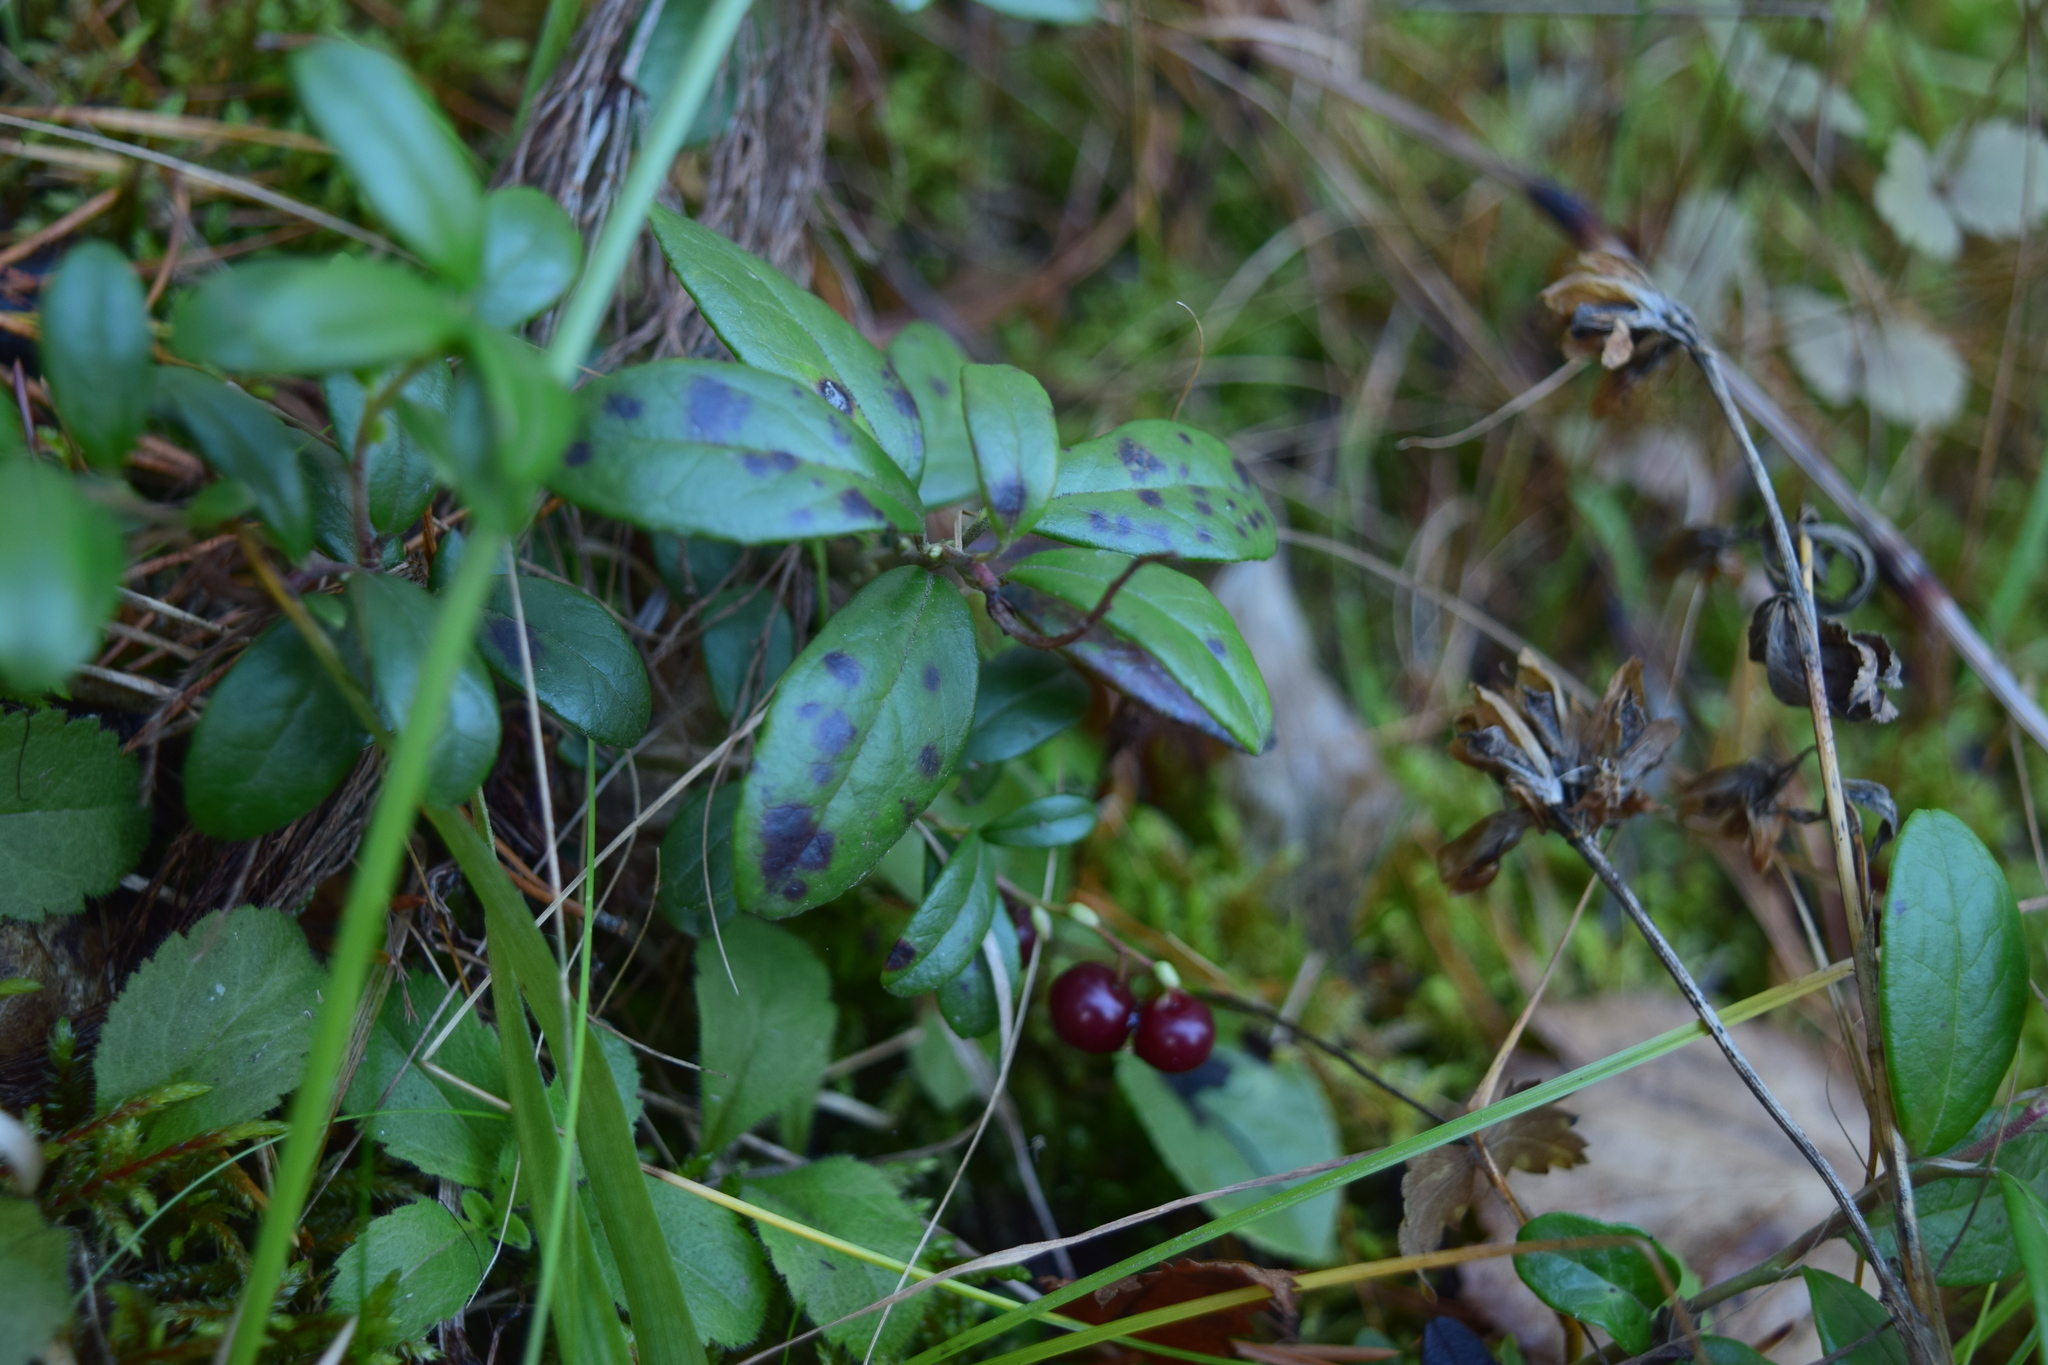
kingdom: Plantae
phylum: Tracheophyta
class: Magnoliopsida
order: Ericales
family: Ericaceae
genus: Vaccinium
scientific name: Vaccinium vitis-idaea
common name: Cowberry
